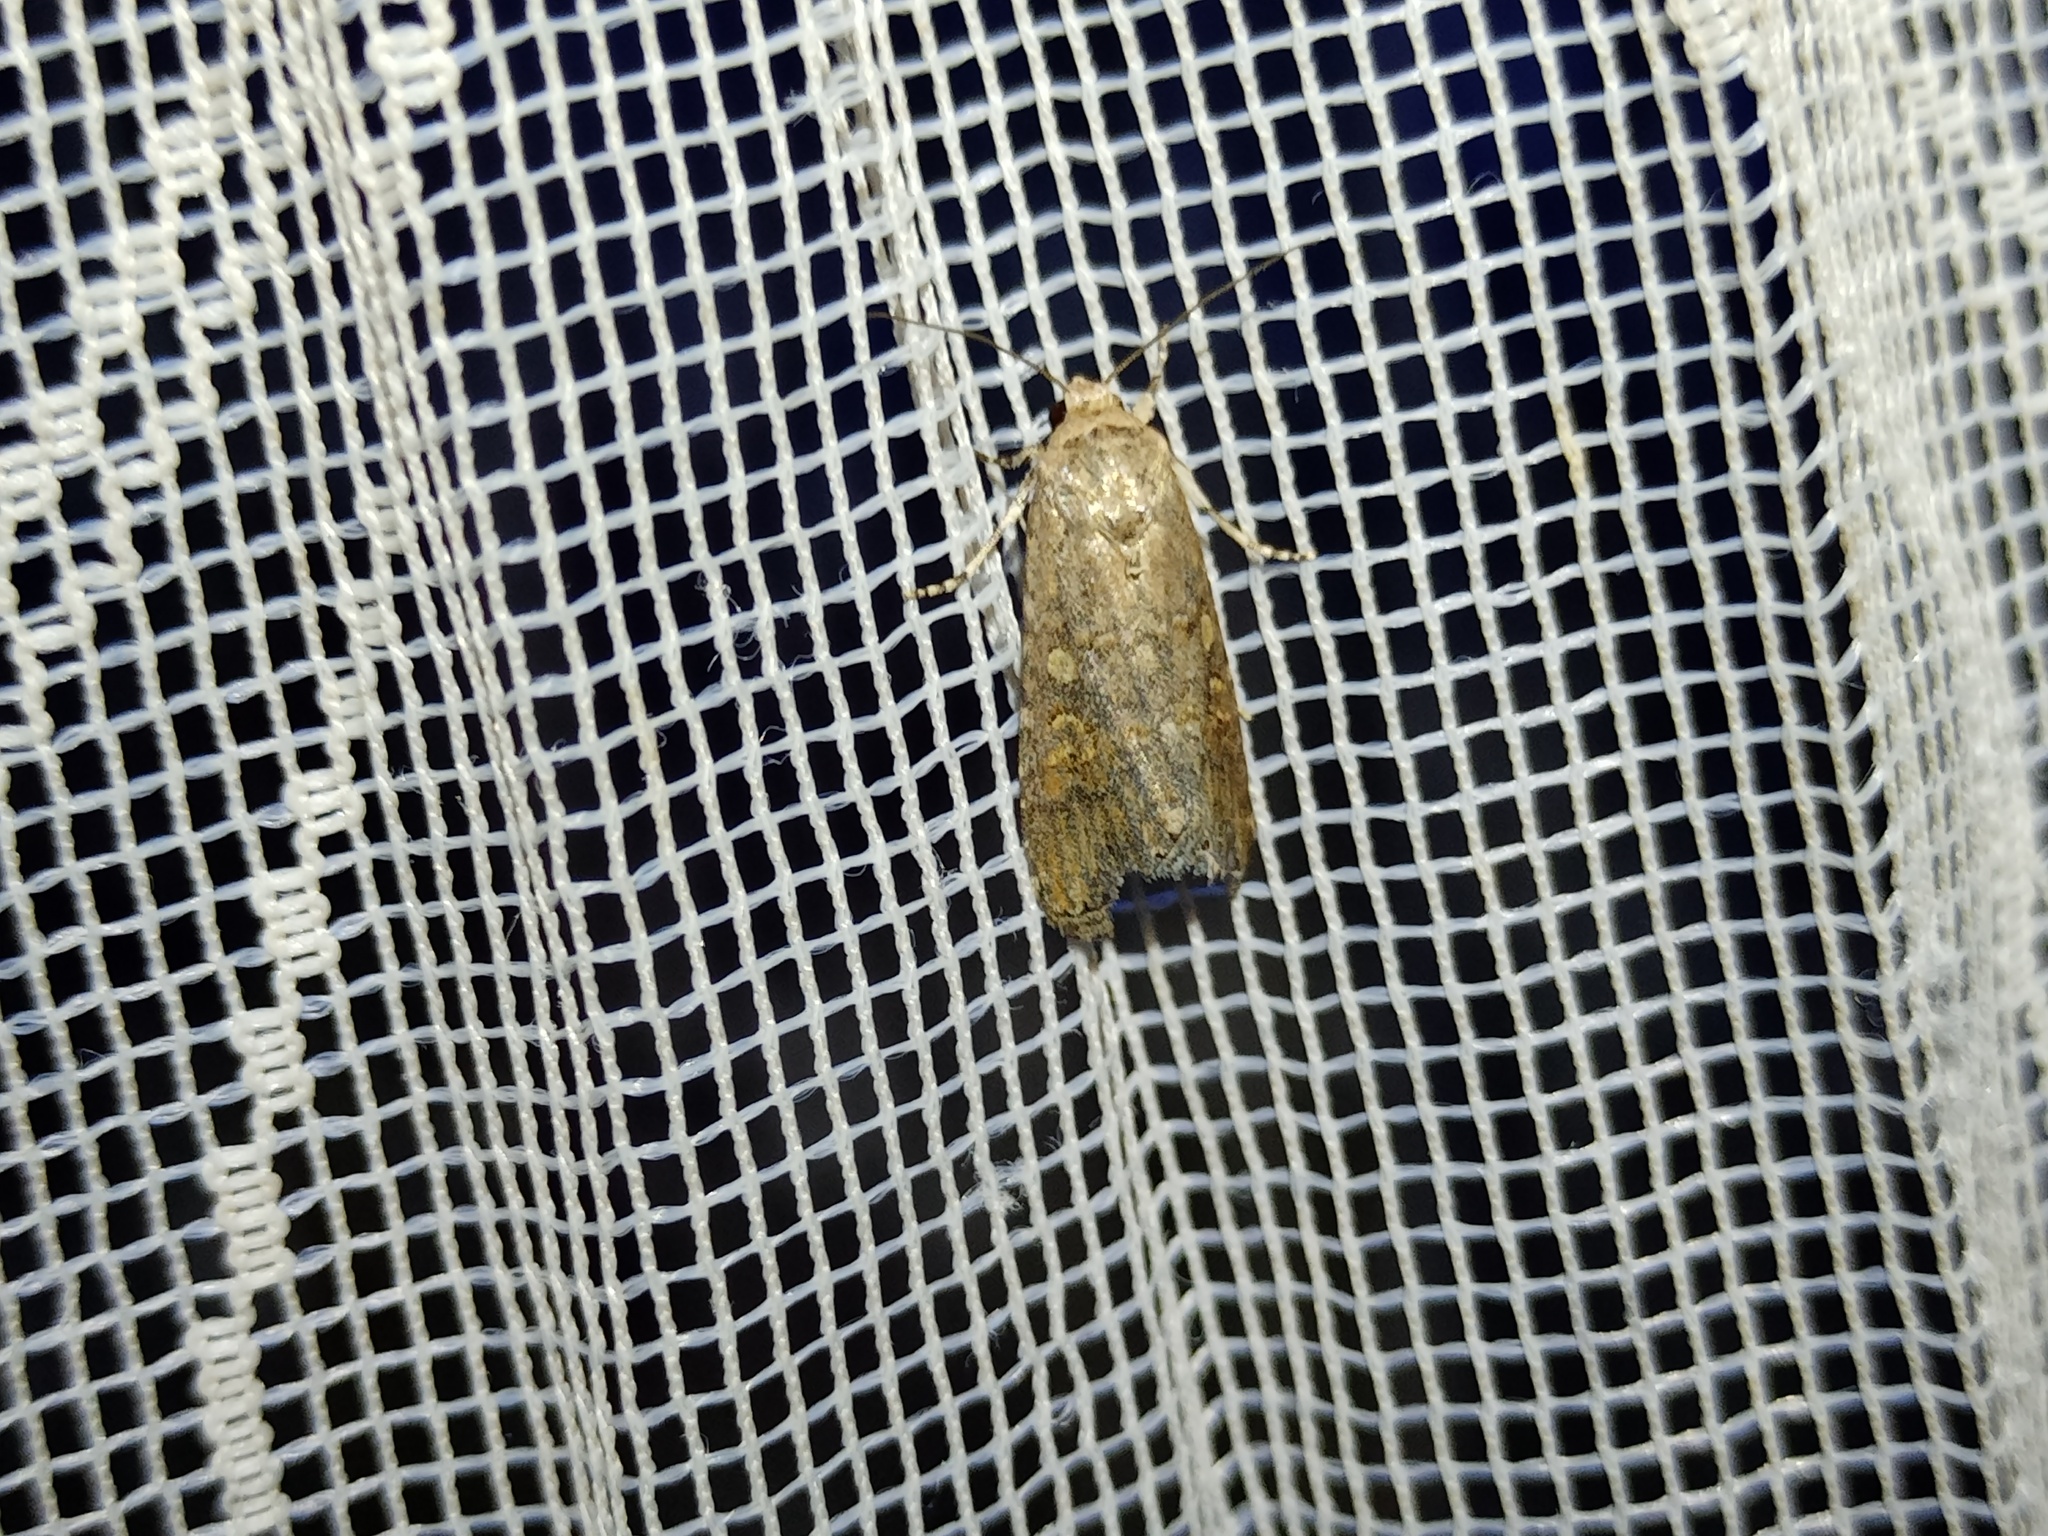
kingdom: Animalia
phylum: Arthropoda
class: Insecta
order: Lepidoptera
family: Noctuidae
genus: Spodoptera
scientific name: Spodoptera exigua
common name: Beet armyworm
